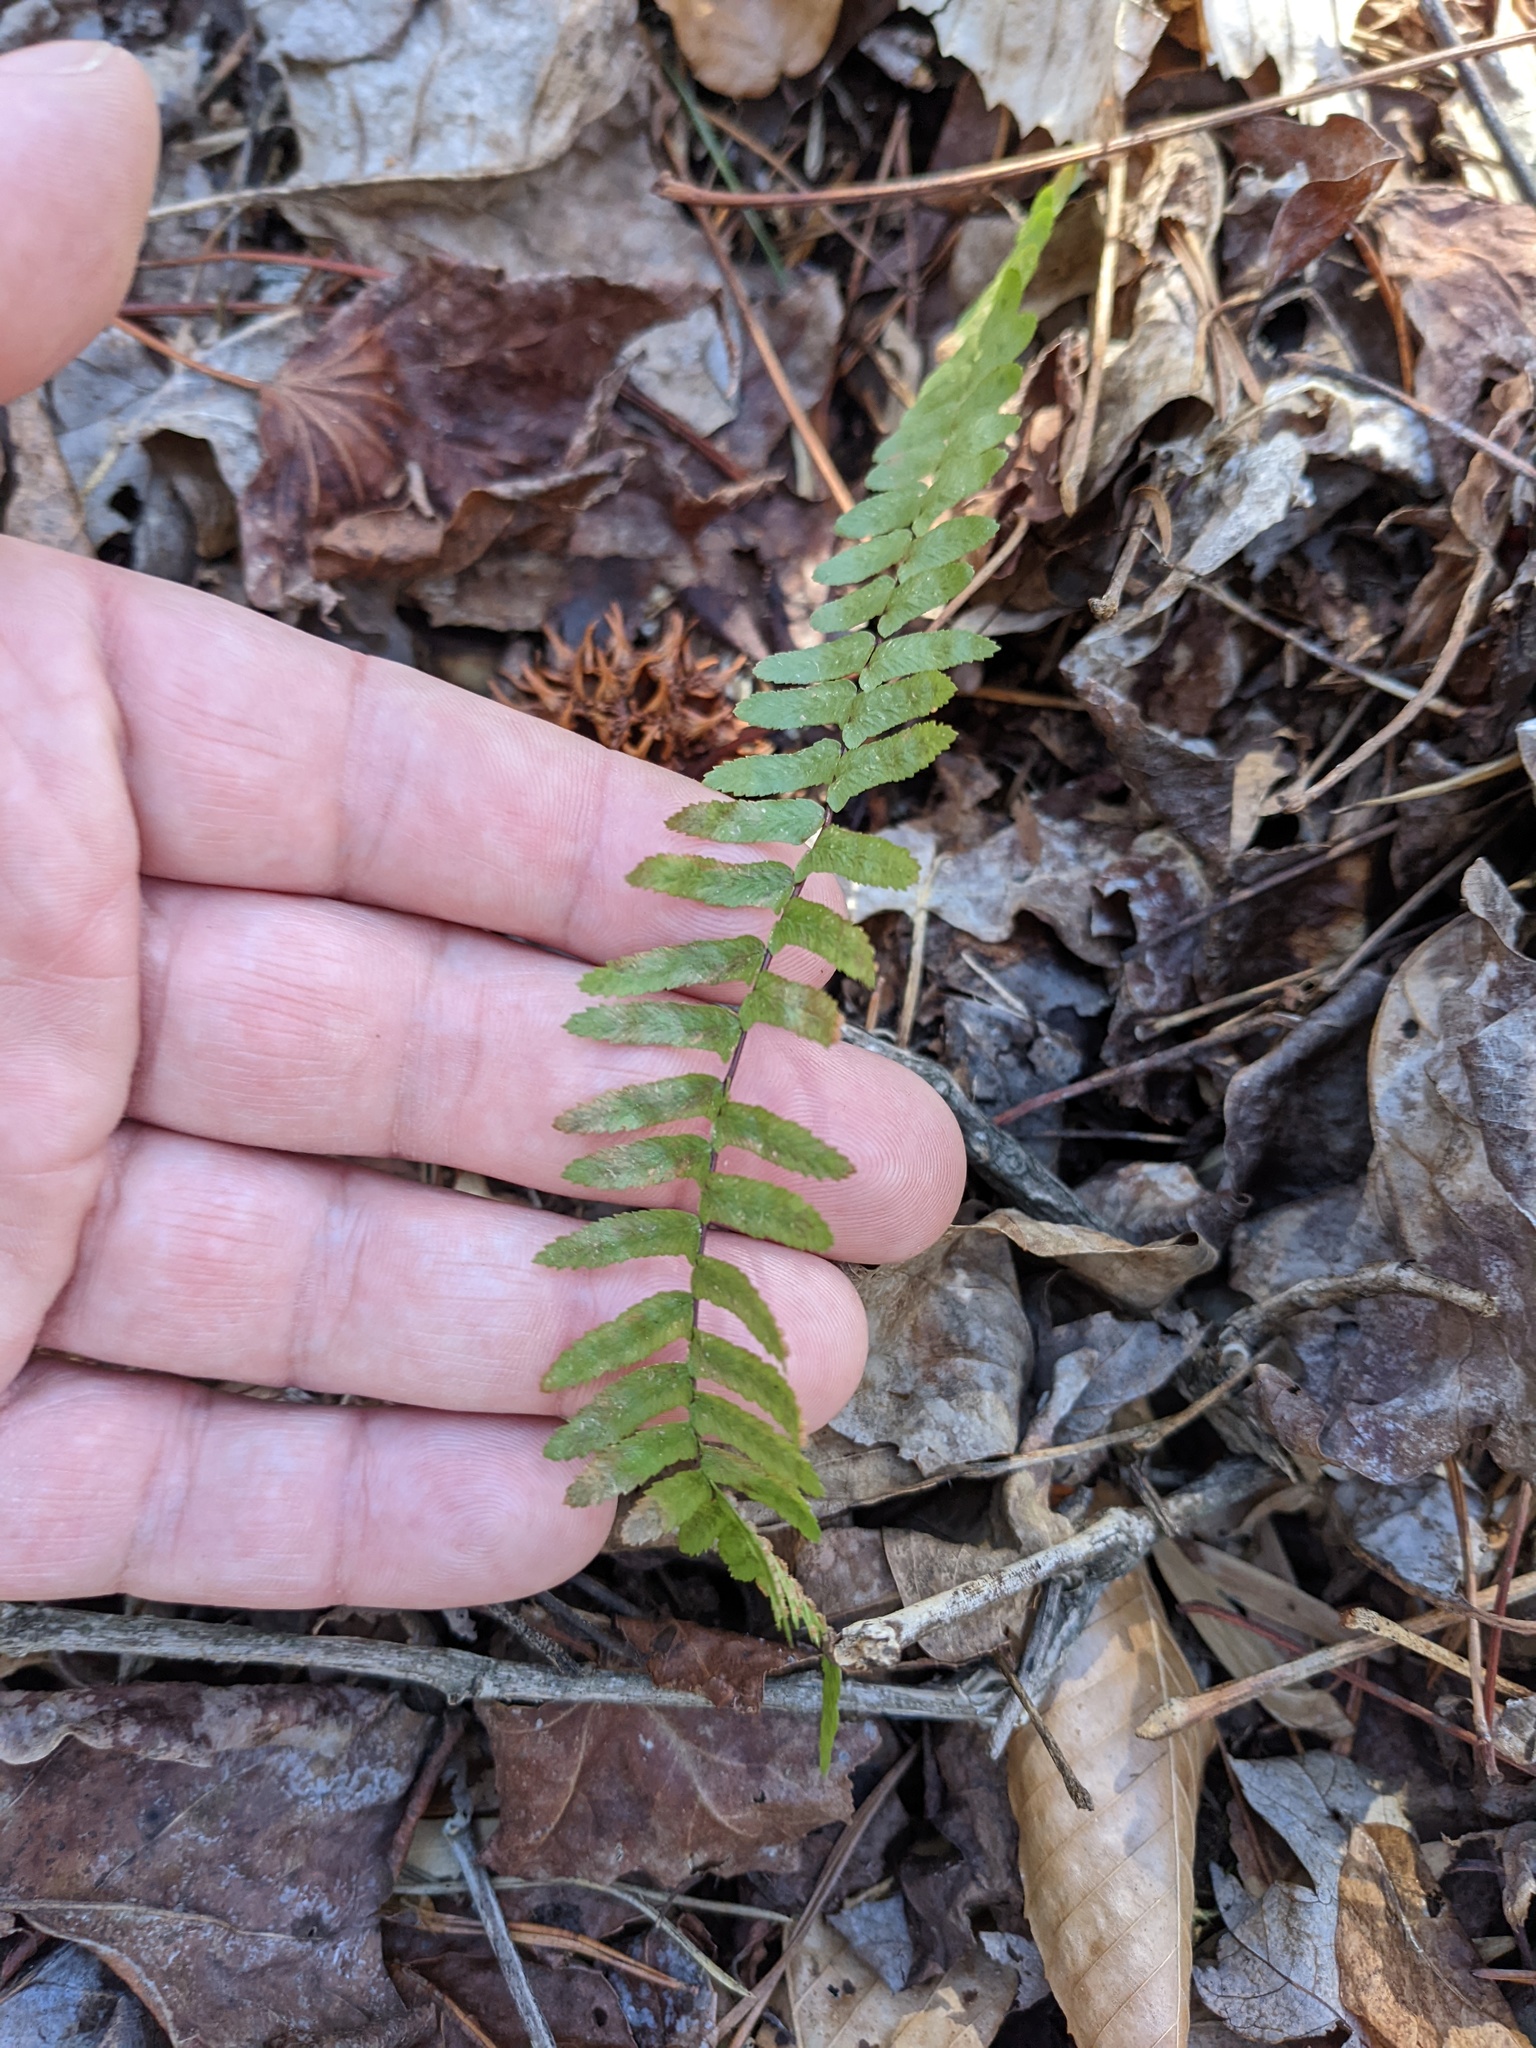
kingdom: Plantae
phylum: Tracheophyta
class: Polypodiopsida
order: Polypodiales
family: Aspleniaceae
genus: Asplenium
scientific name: Asplenium platyneuron
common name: Ebony spleenwort
